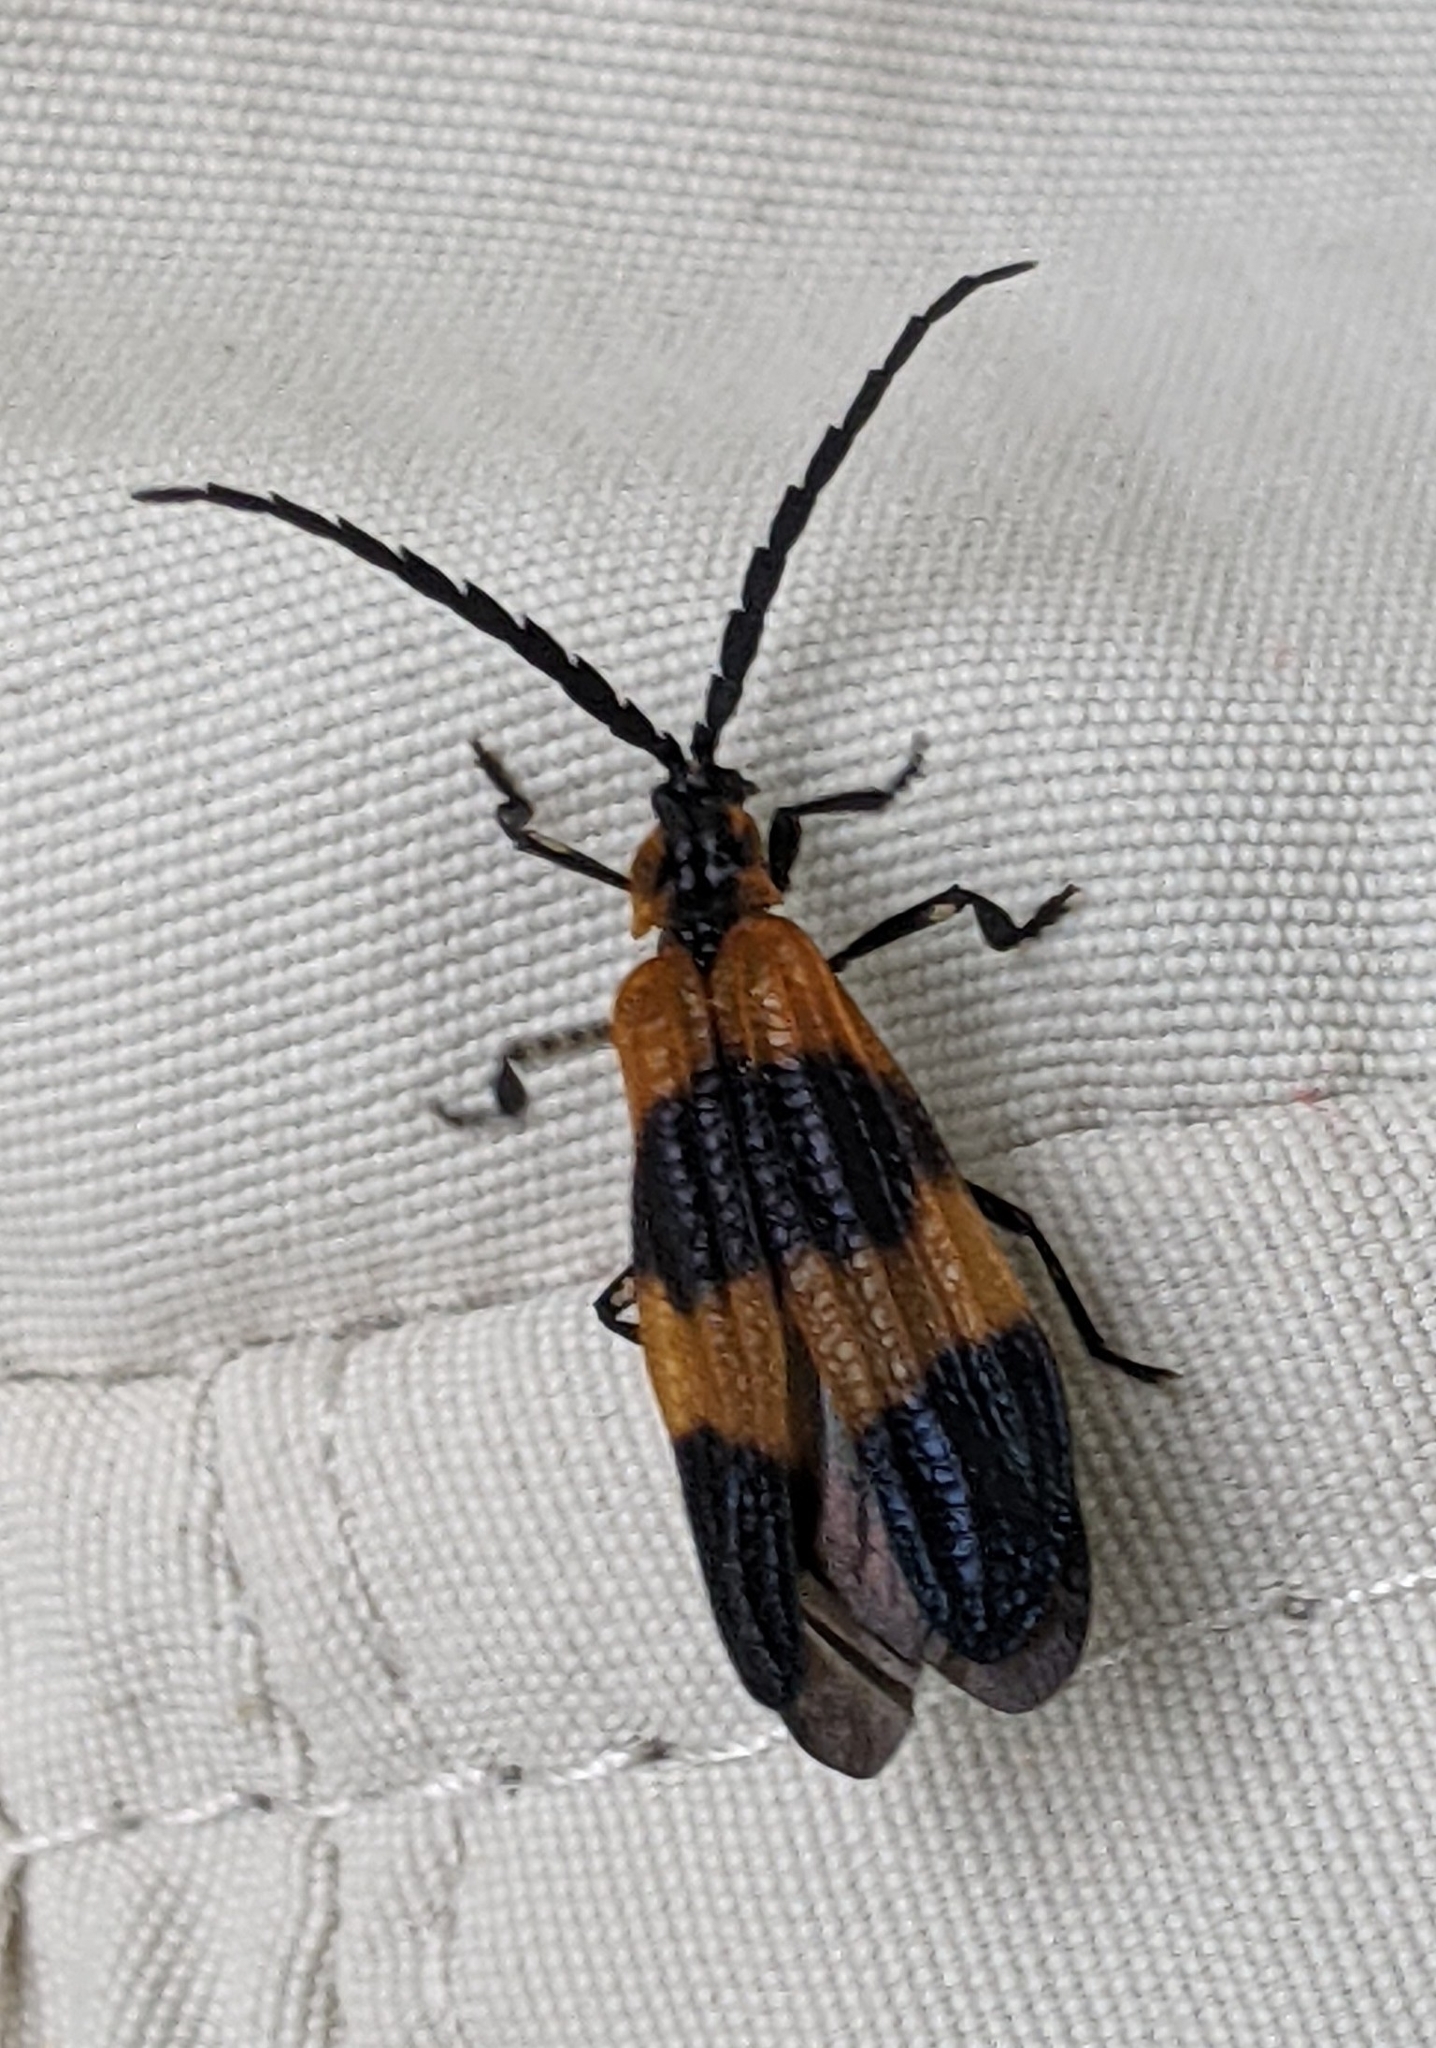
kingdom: Animalia
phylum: Arthropoda
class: Insecta
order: Coleoptera
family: Lycidae
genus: Calopteron
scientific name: Calopteron reticulatum
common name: Banded net-winged beetle
